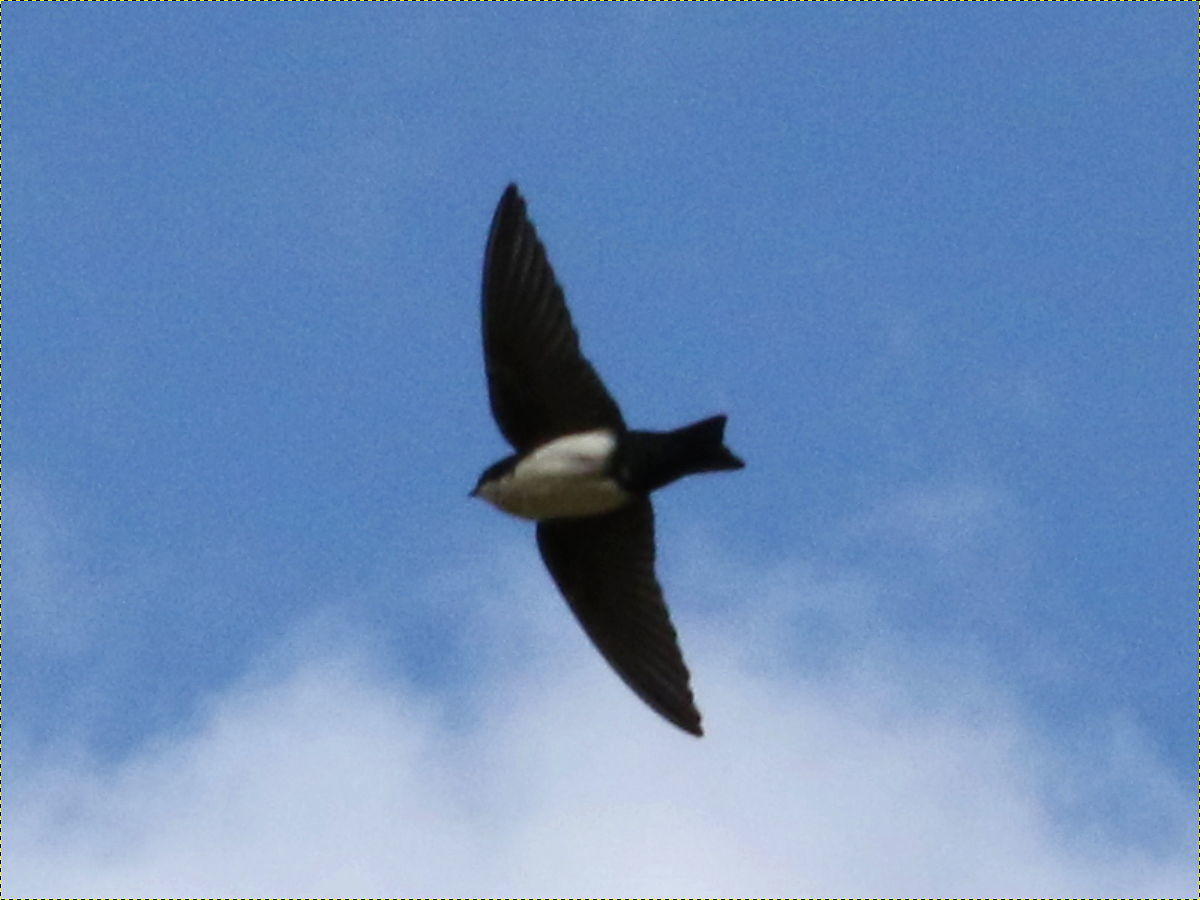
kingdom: Animalia
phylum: Chordata
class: Aves
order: Passeriformes
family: Hirundinidae
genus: Notiochelidon
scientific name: Notiochelidon cyanoleuca
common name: Blue-and-white swallow
